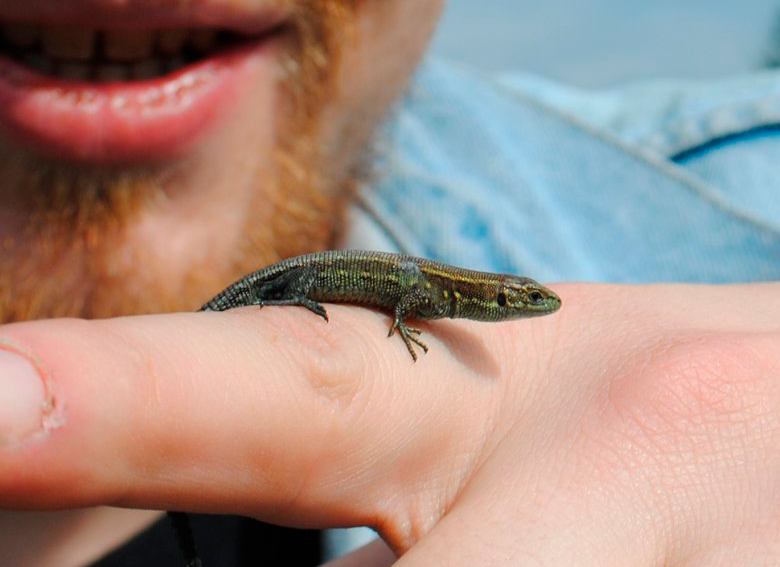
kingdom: Animalia
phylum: Chordata
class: Squamata
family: Lacertidae
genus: Zootoca
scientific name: Zootoca vivipara
